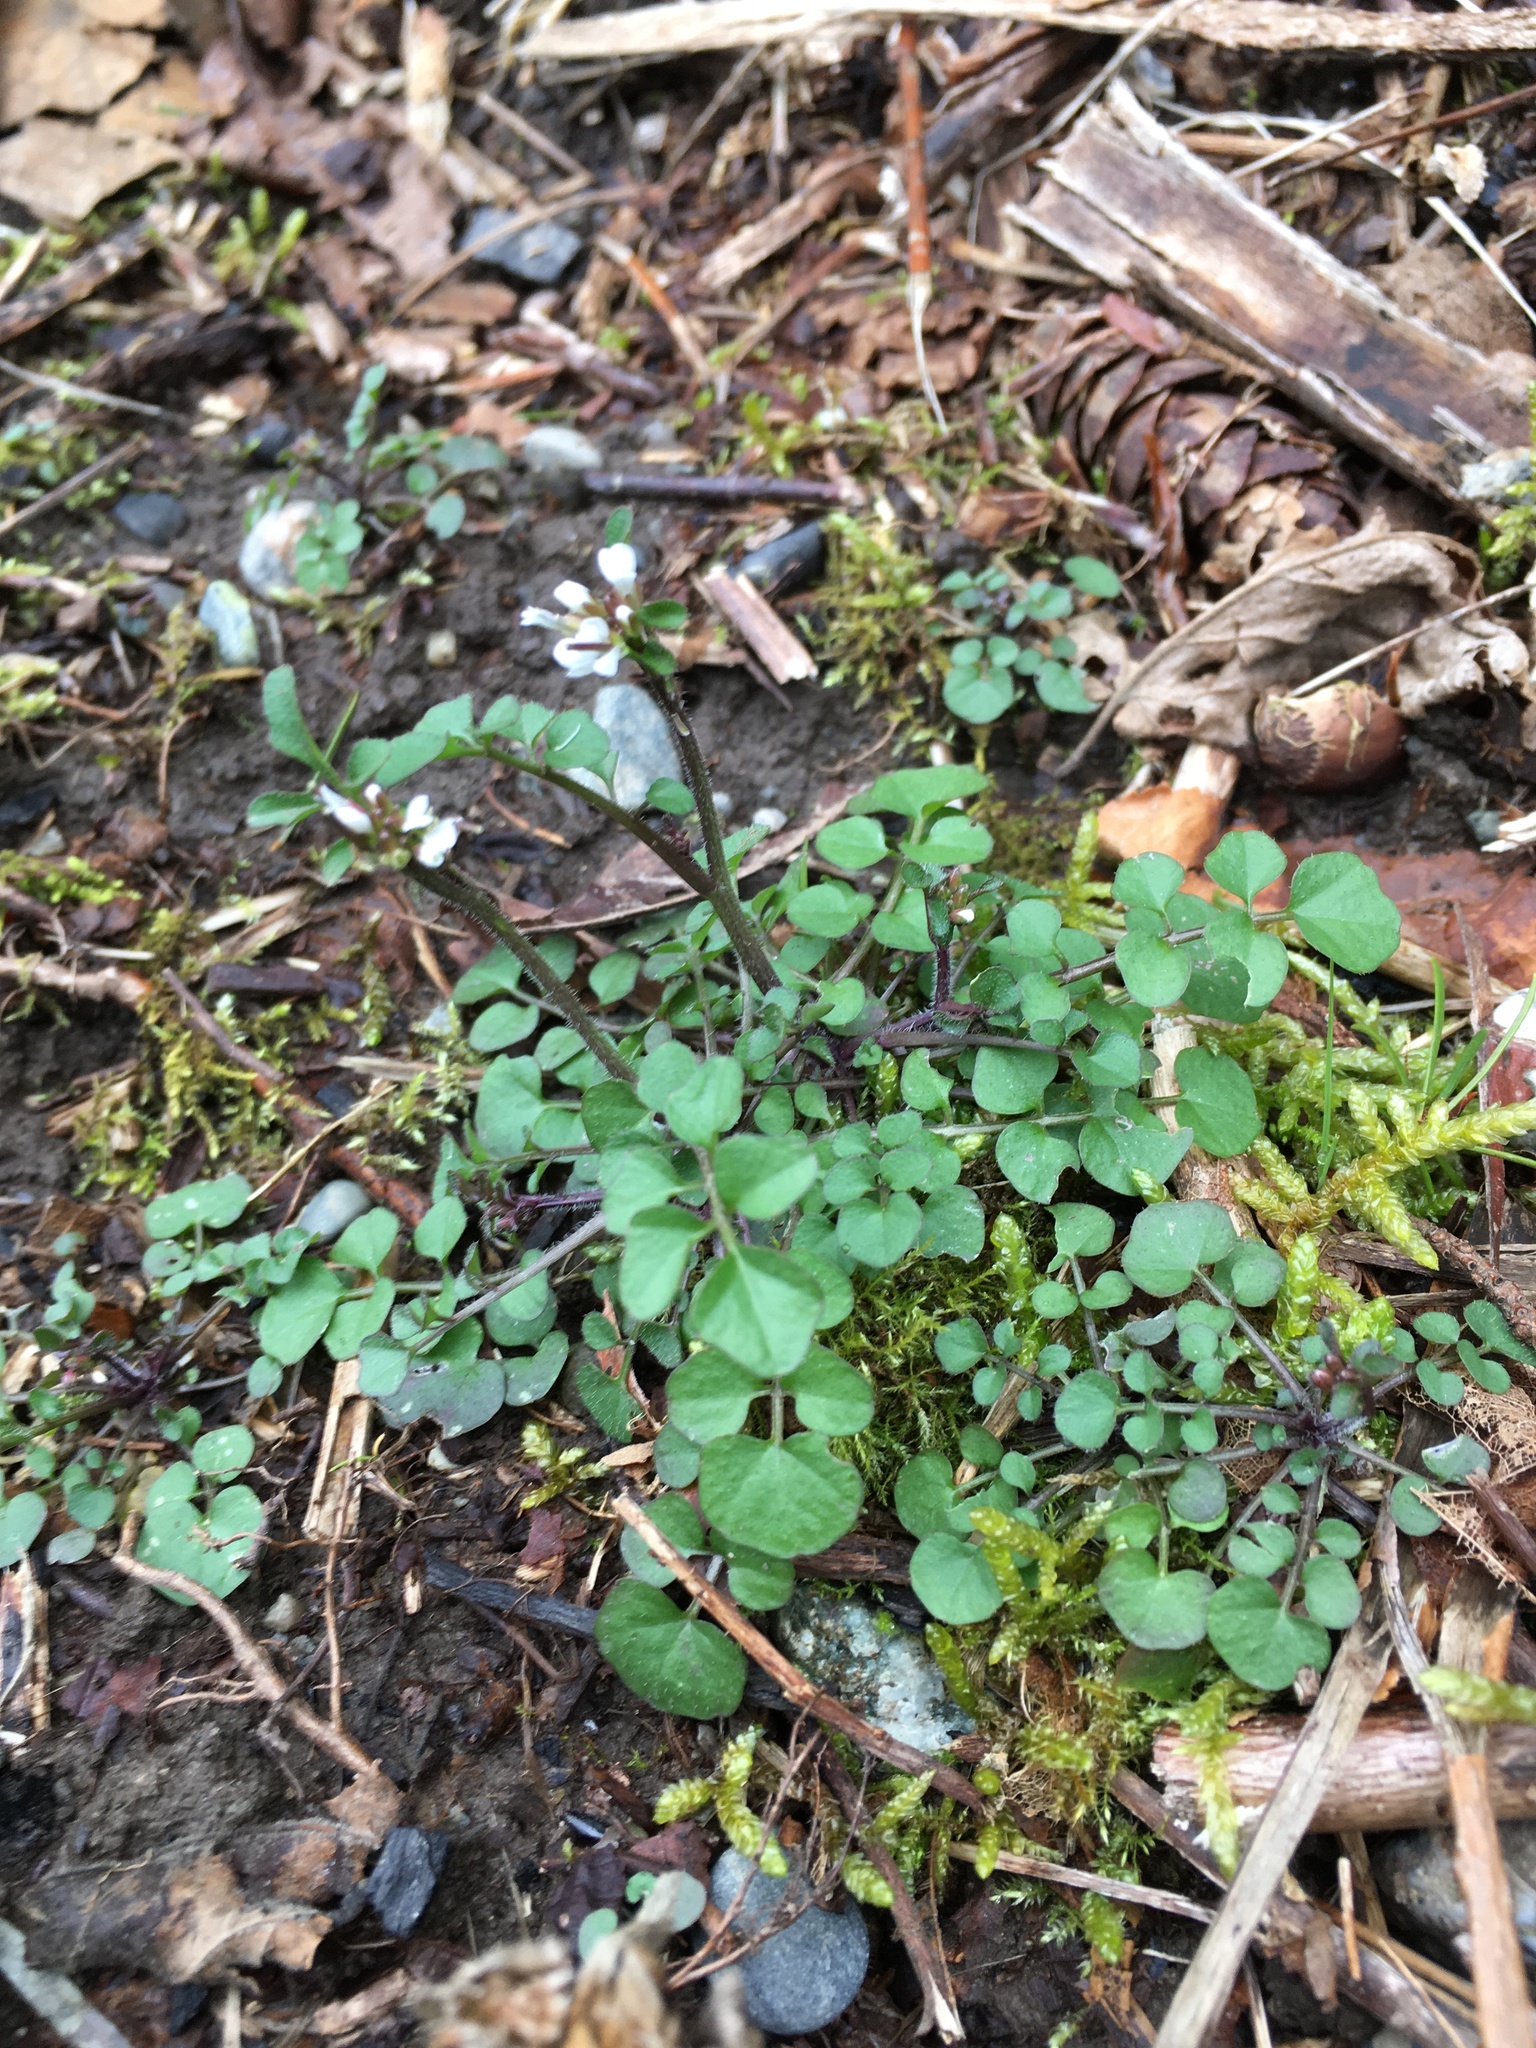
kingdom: Plantae
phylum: Tracheophyta
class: Magnoliopsida
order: Brassicales
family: Brassicaceae
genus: Cardamine
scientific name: Cardamine hirsuta
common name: Hairy bittercress
